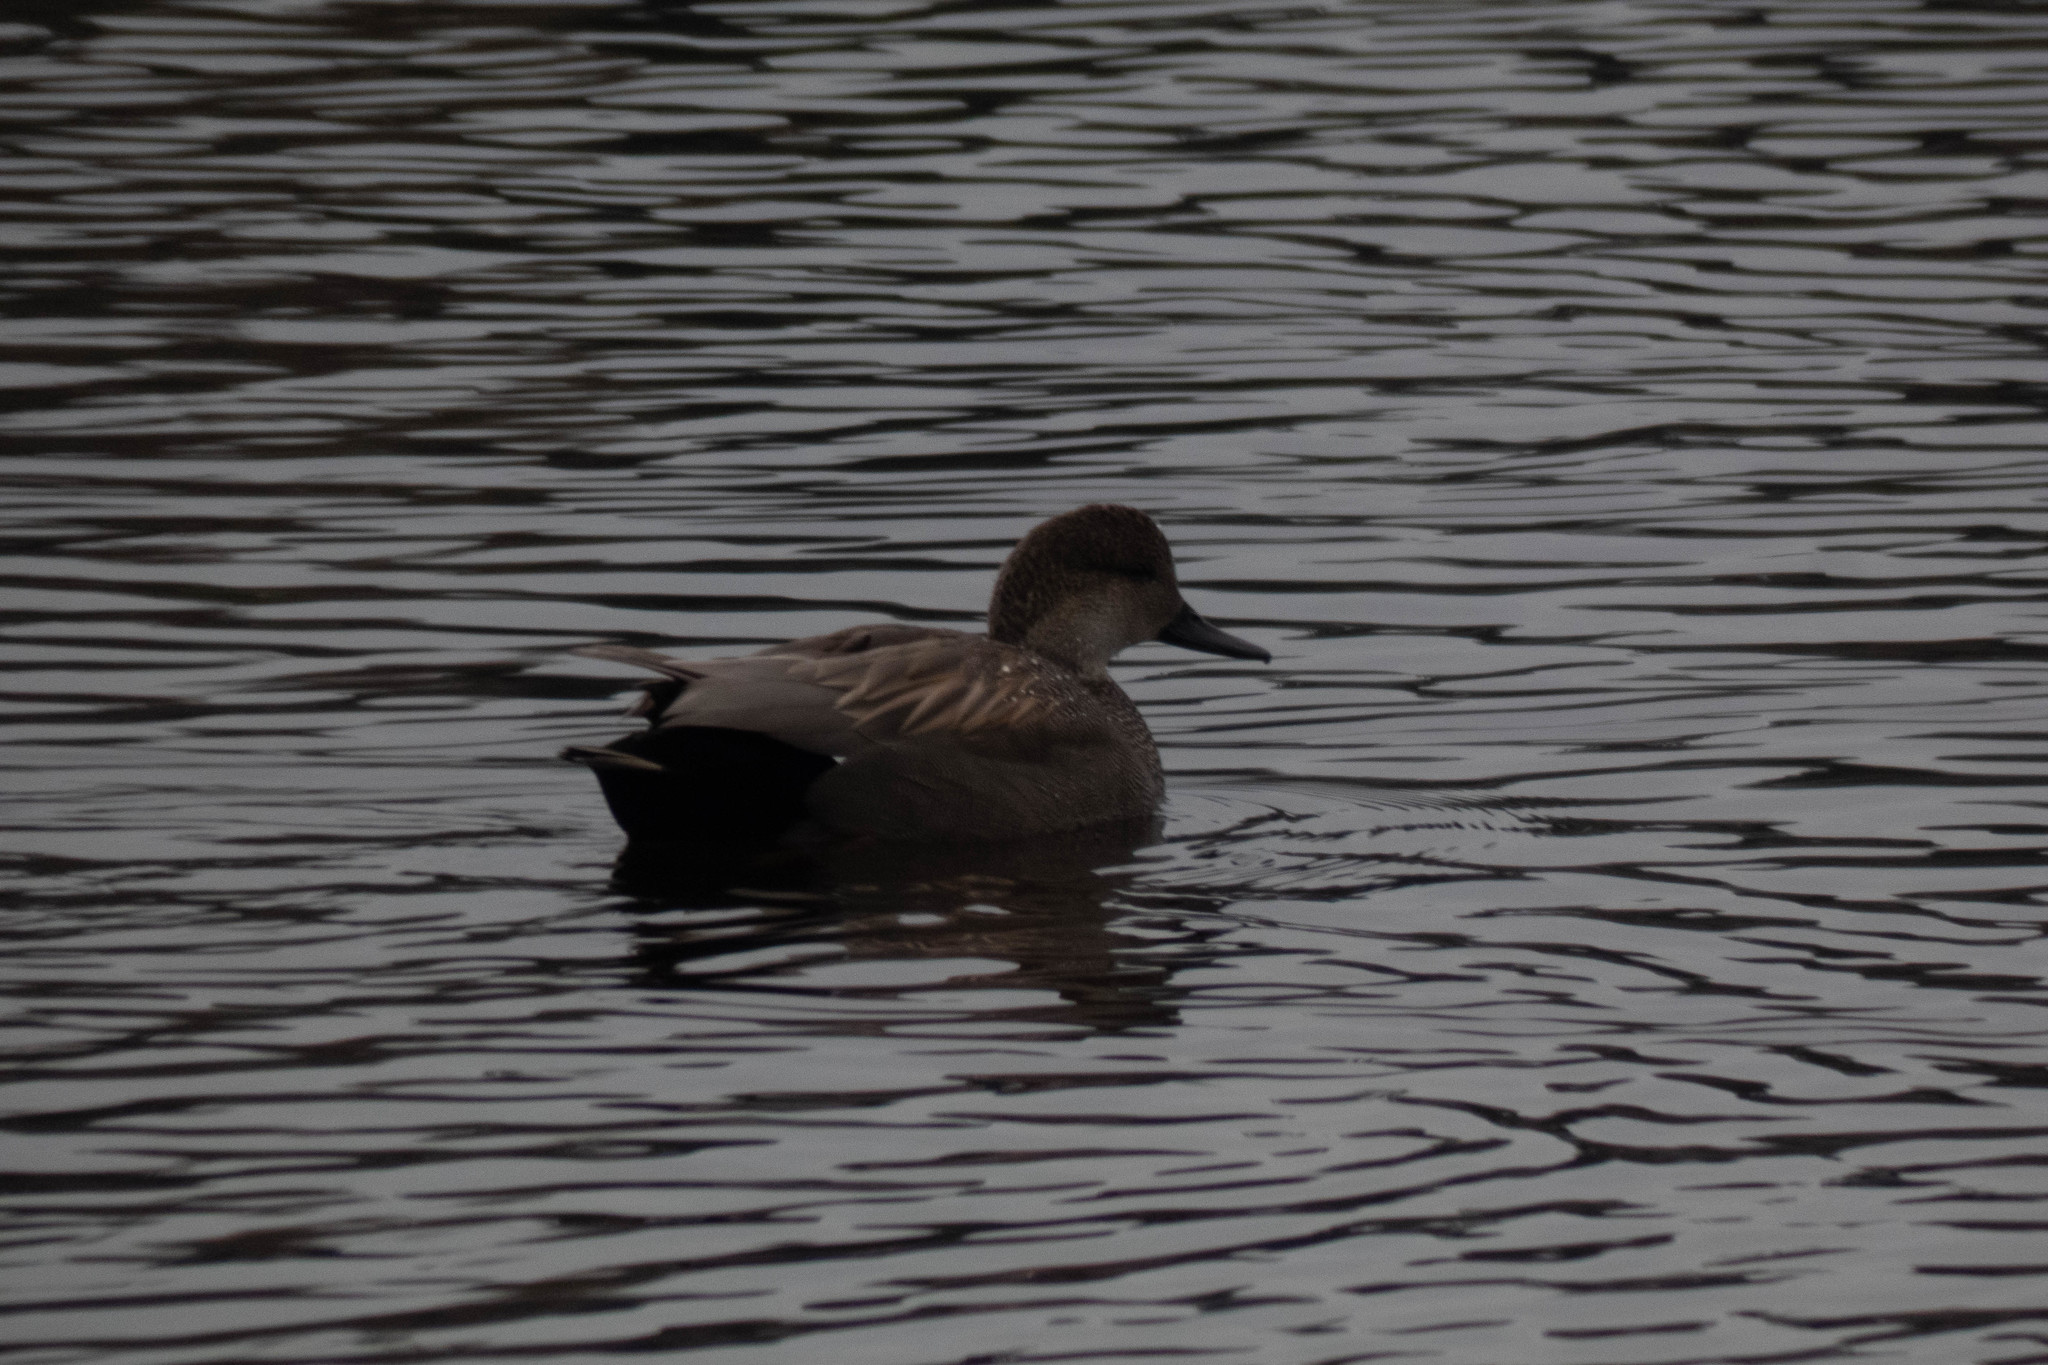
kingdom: Animalia
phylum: Chordata
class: Aves
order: Anseriformes
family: Anatidae
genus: Mareca
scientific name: Mareca strepera
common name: Gadwall
